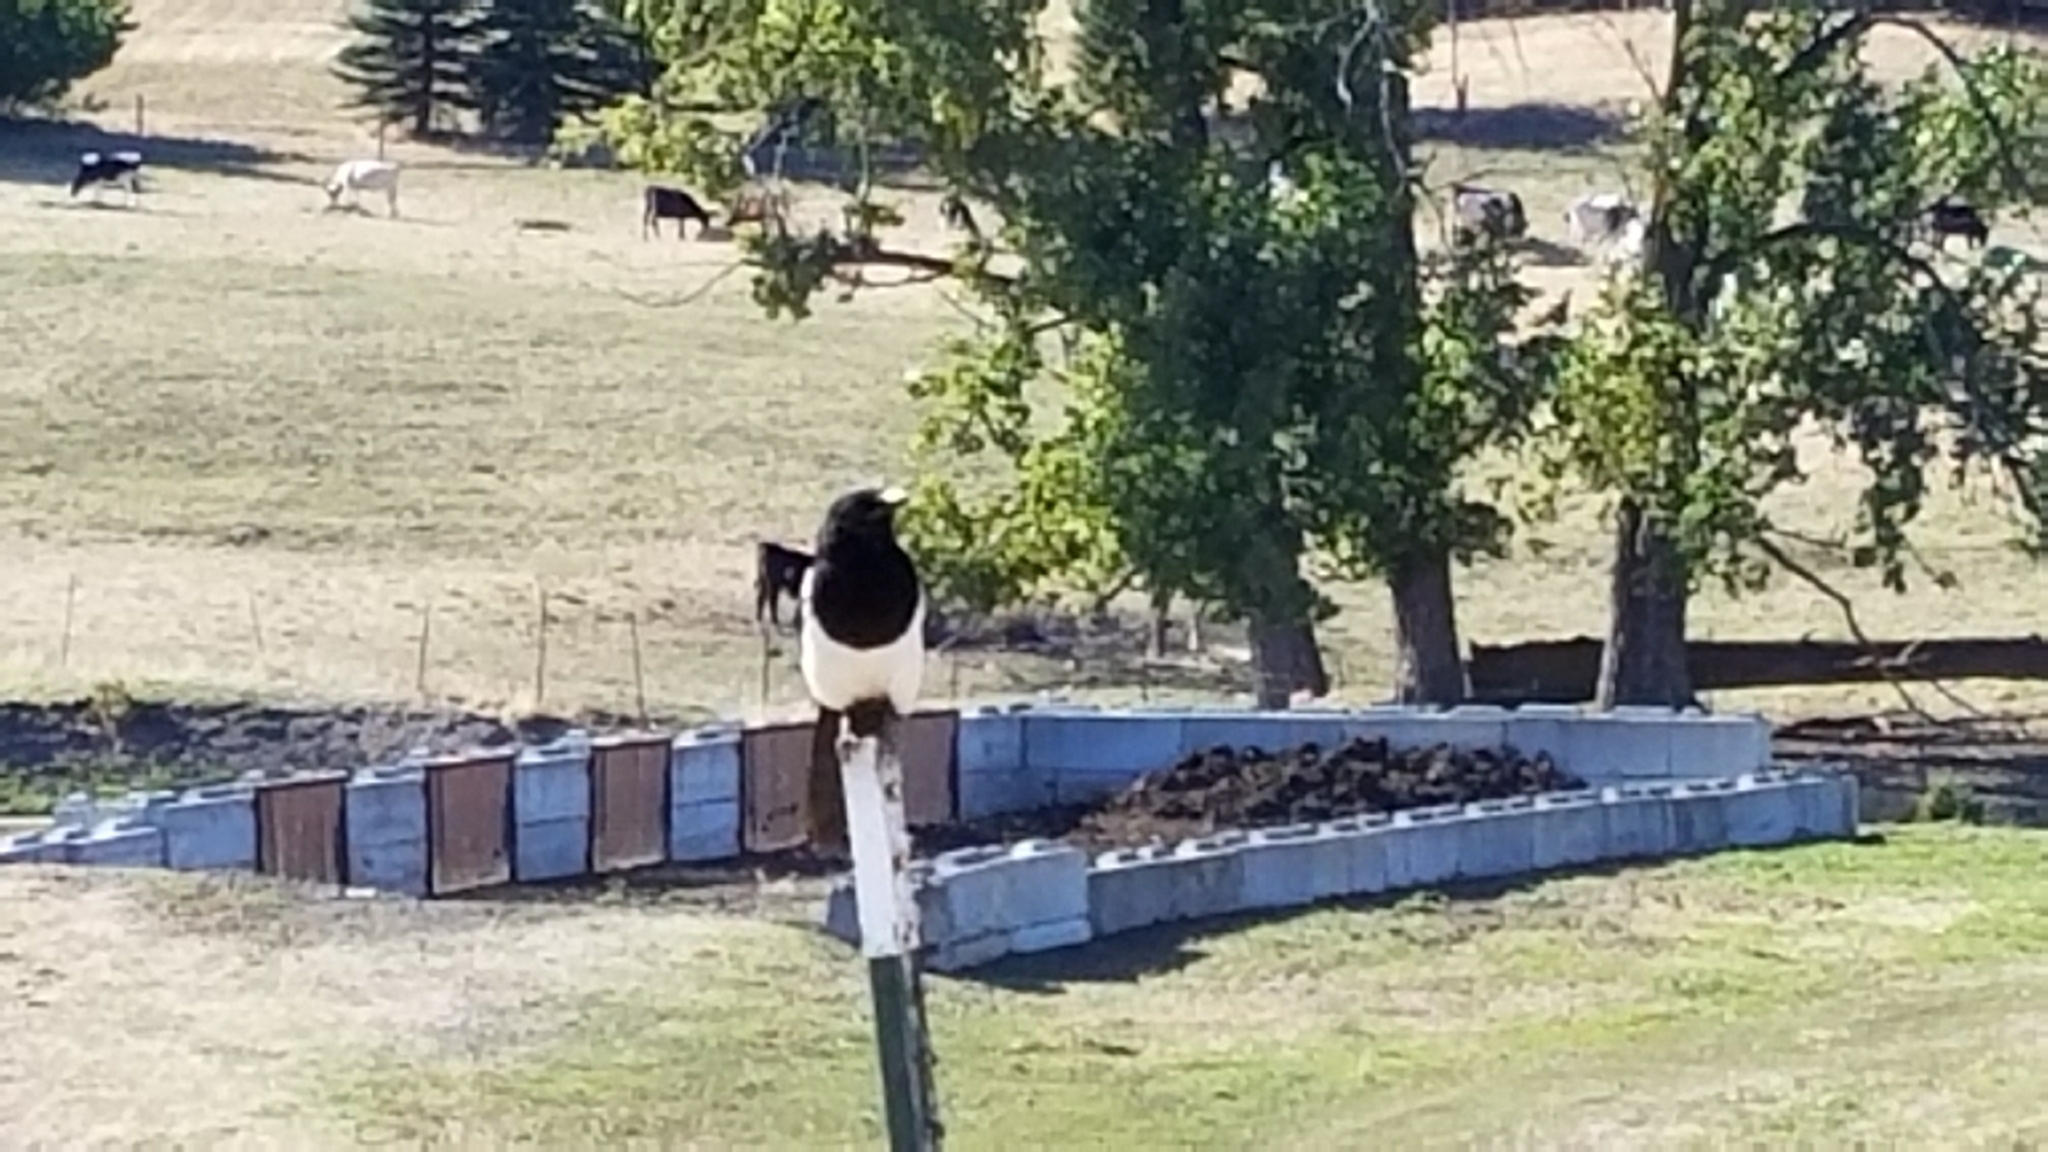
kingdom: Animalia
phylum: Chordata
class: Aves
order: Passeriformes
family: Corvidae
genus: Pica
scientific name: Pica hudsonia
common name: Black-billed magpie
